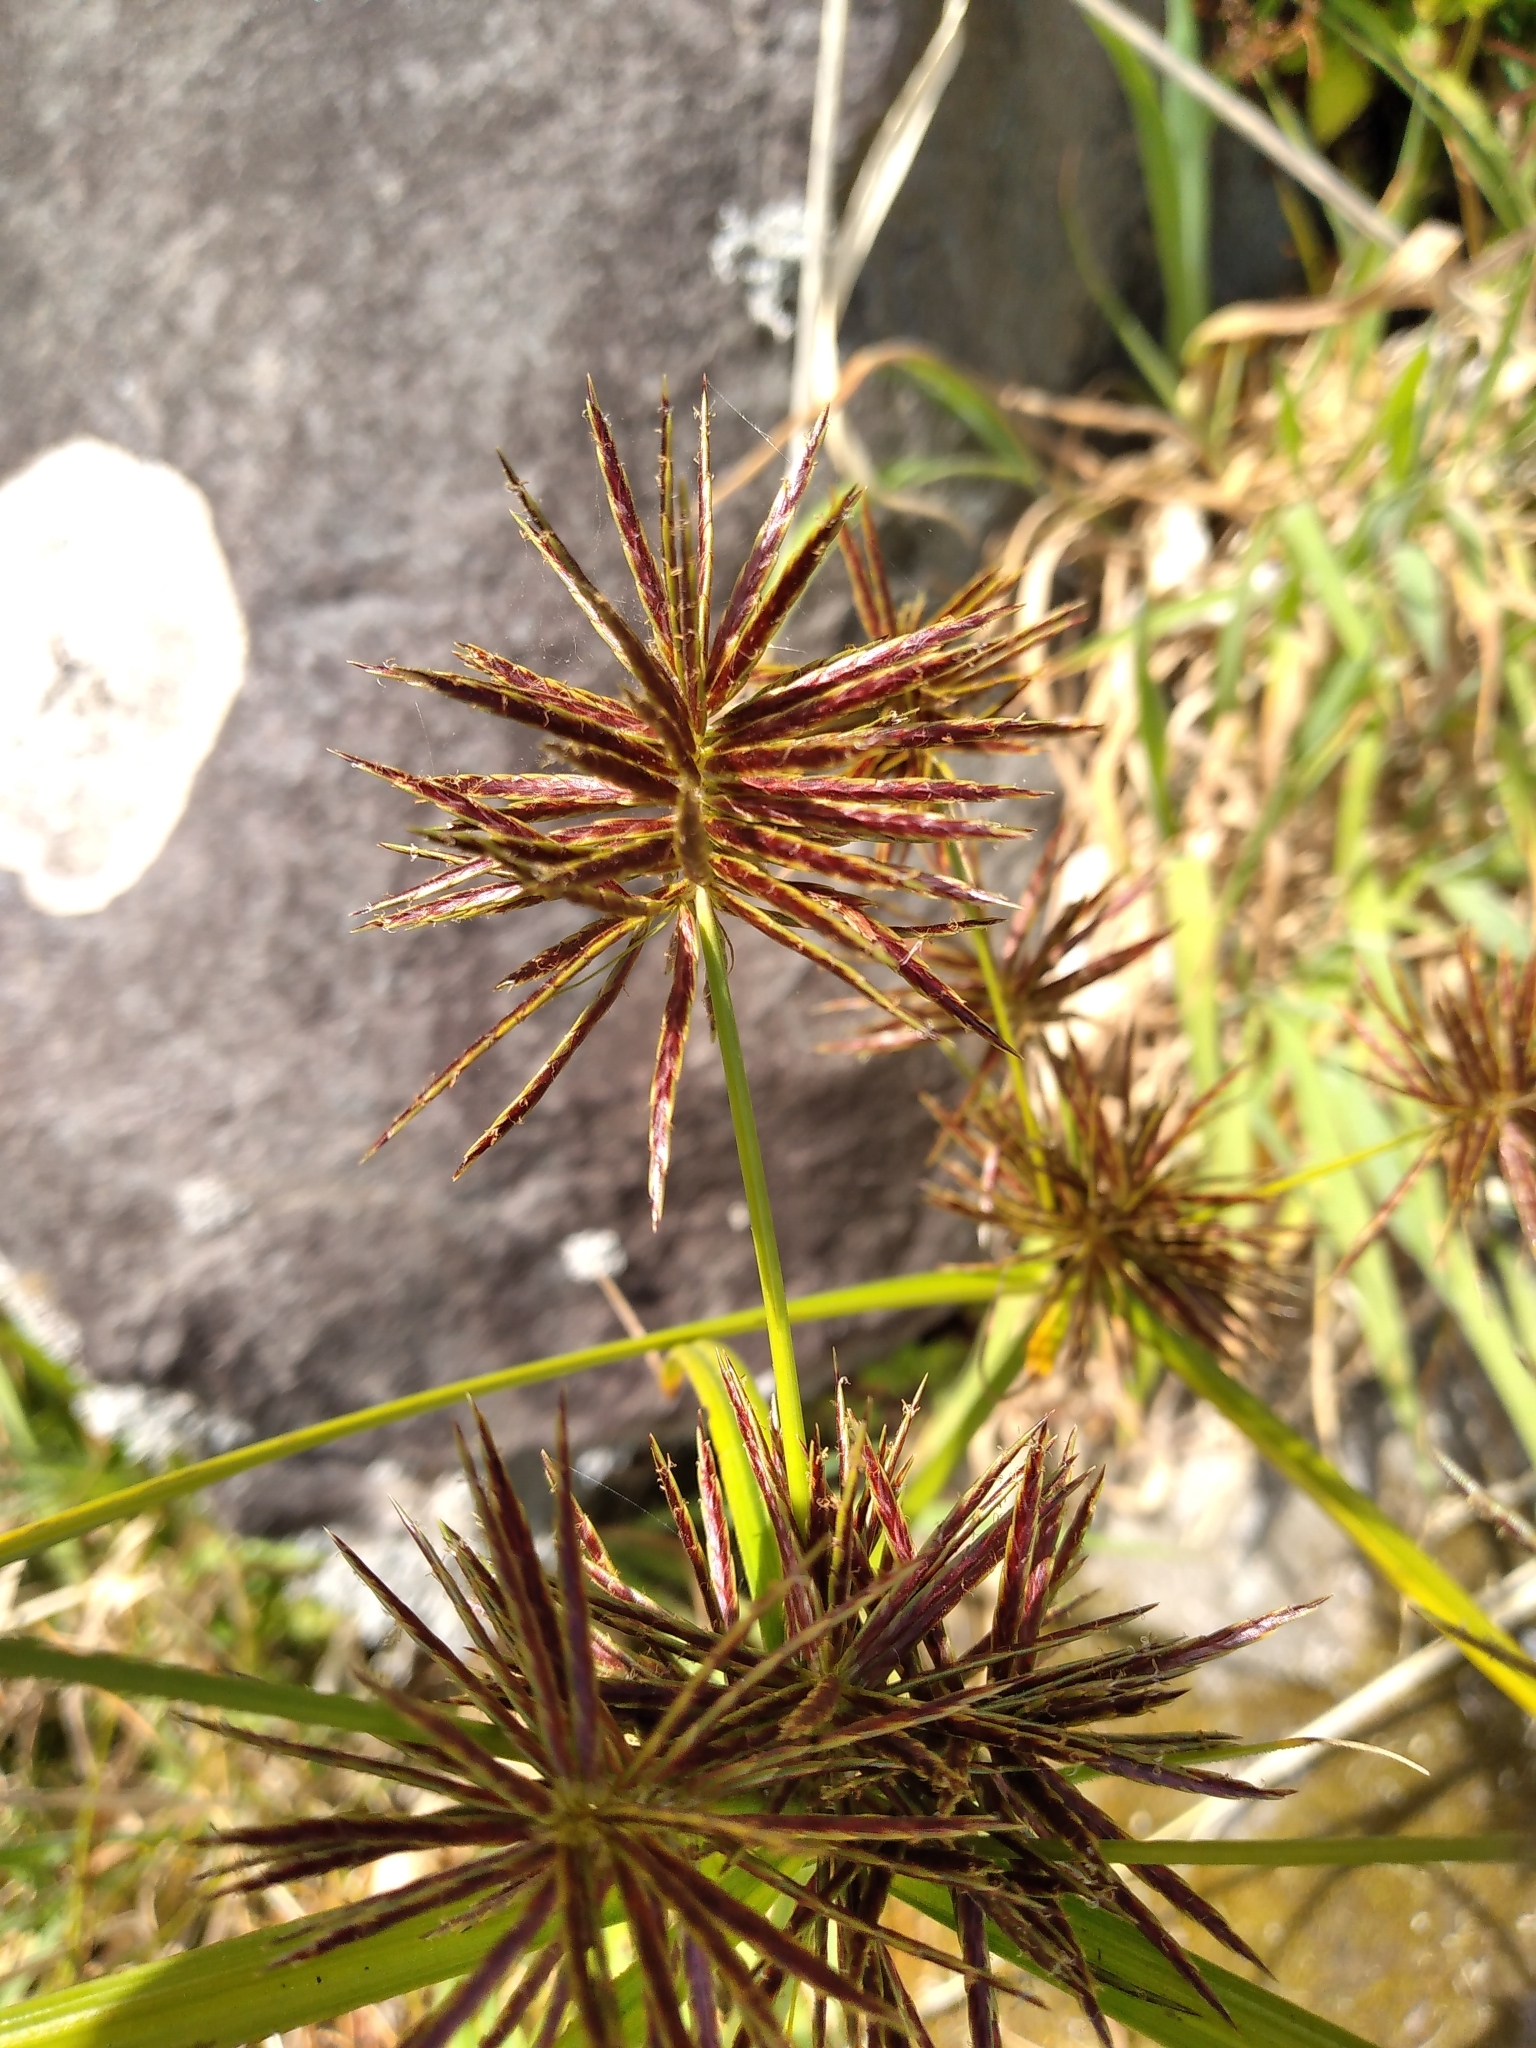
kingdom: Plantae
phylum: Tracheophyta
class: Liliopsida
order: Poales
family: Cyperaceae
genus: Cyperus
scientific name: Cyperus congestus
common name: Dense flat sedge
